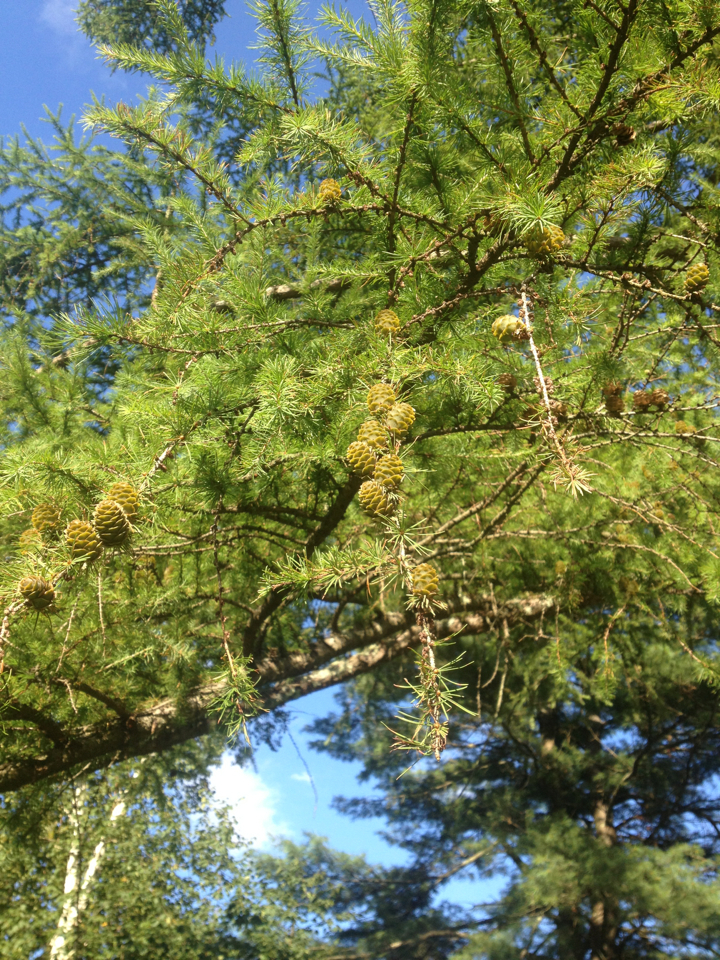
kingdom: Plantae
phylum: Tracheophyta
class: Pinopsida
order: Pinales
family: Pinaceae
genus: Larix
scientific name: Larix decidua
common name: European larch
